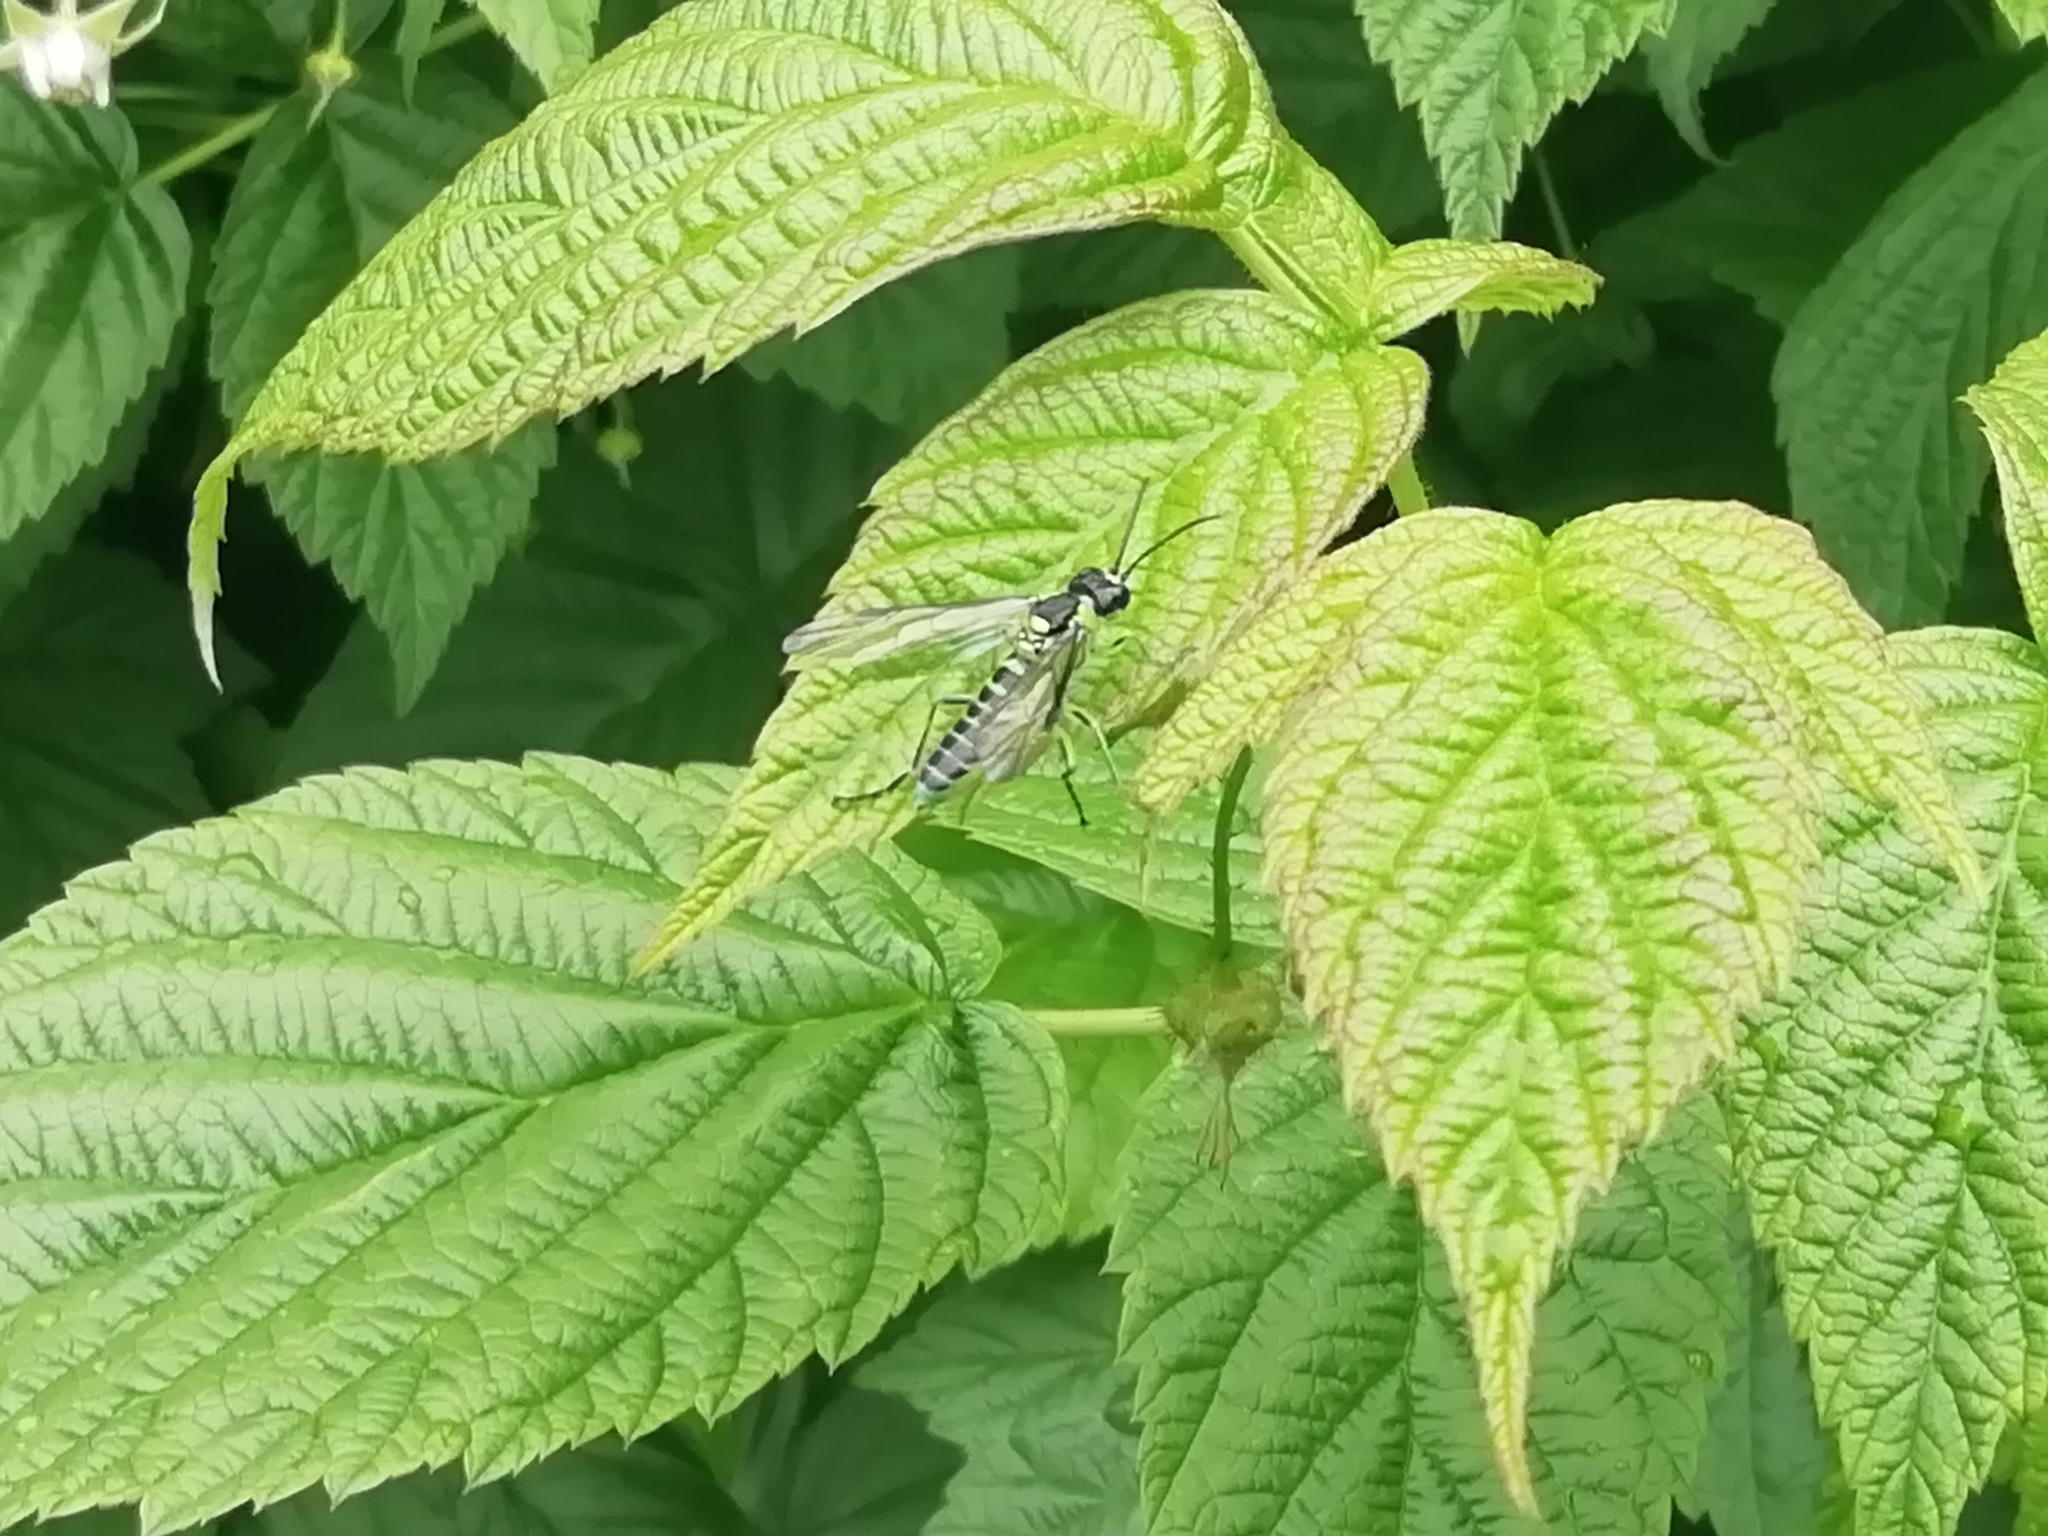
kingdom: Animalia
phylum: Arthropoda
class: Insecta
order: Hymenoptera
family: Tenthredinidae
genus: Tenthredo
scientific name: Tenthredo mesomela
